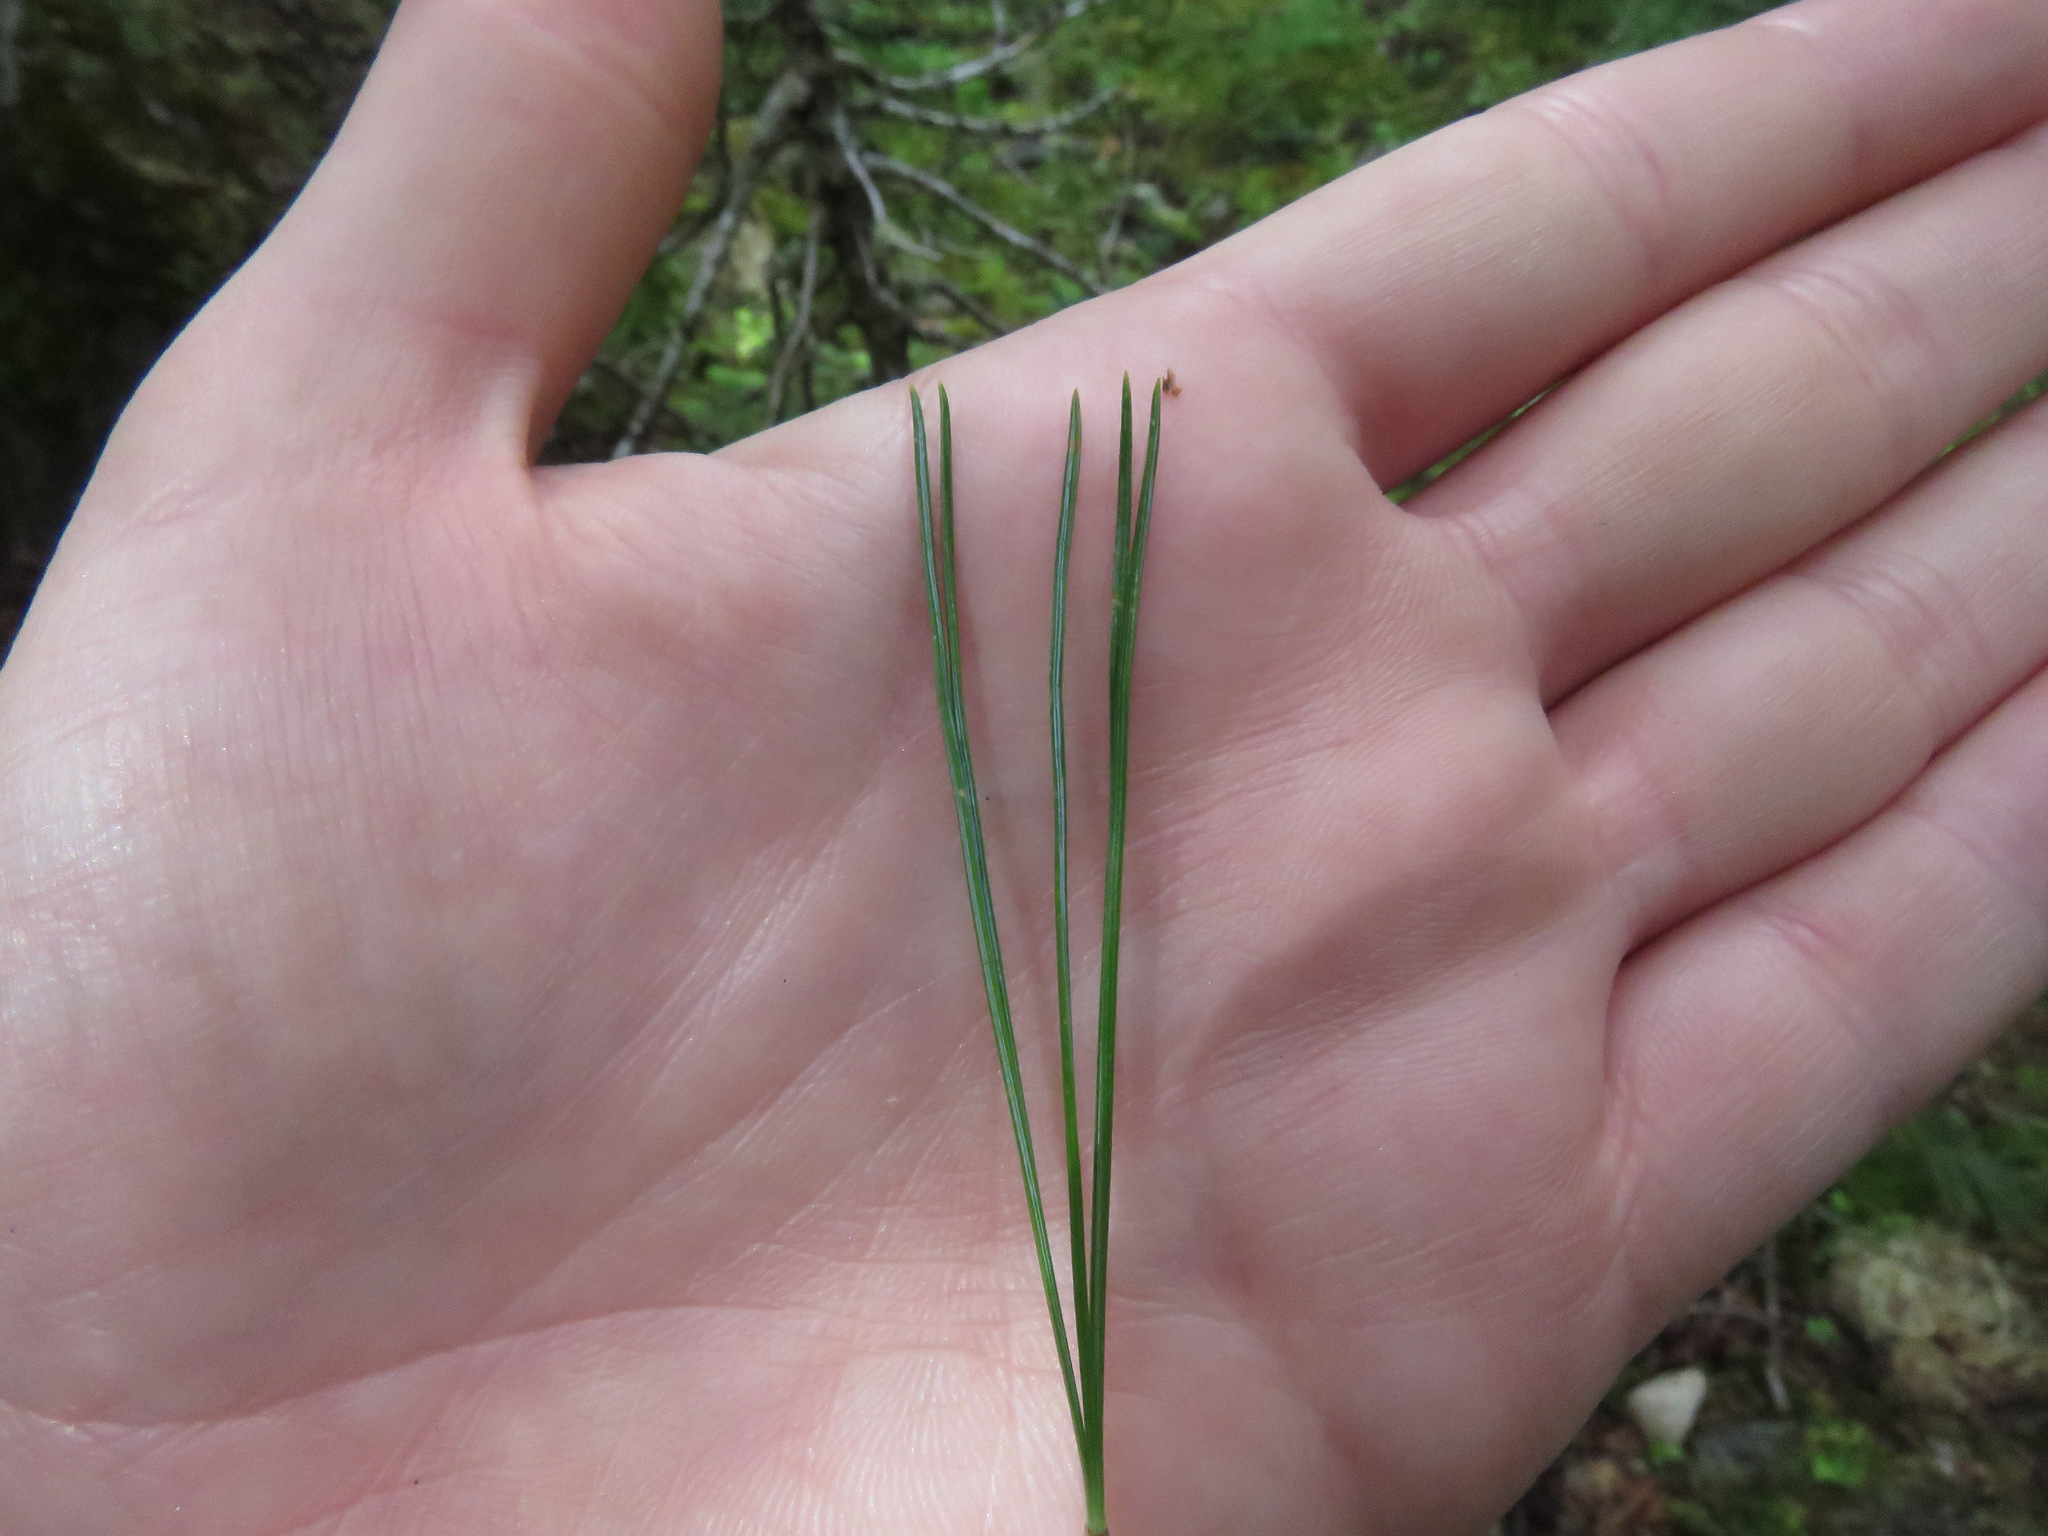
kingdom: Plantae
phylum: Tracheophyta
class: Pinopsida
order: Pinales
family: Pinaceae
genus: Pinus
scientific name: Pinus monticola
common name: Western white pine
